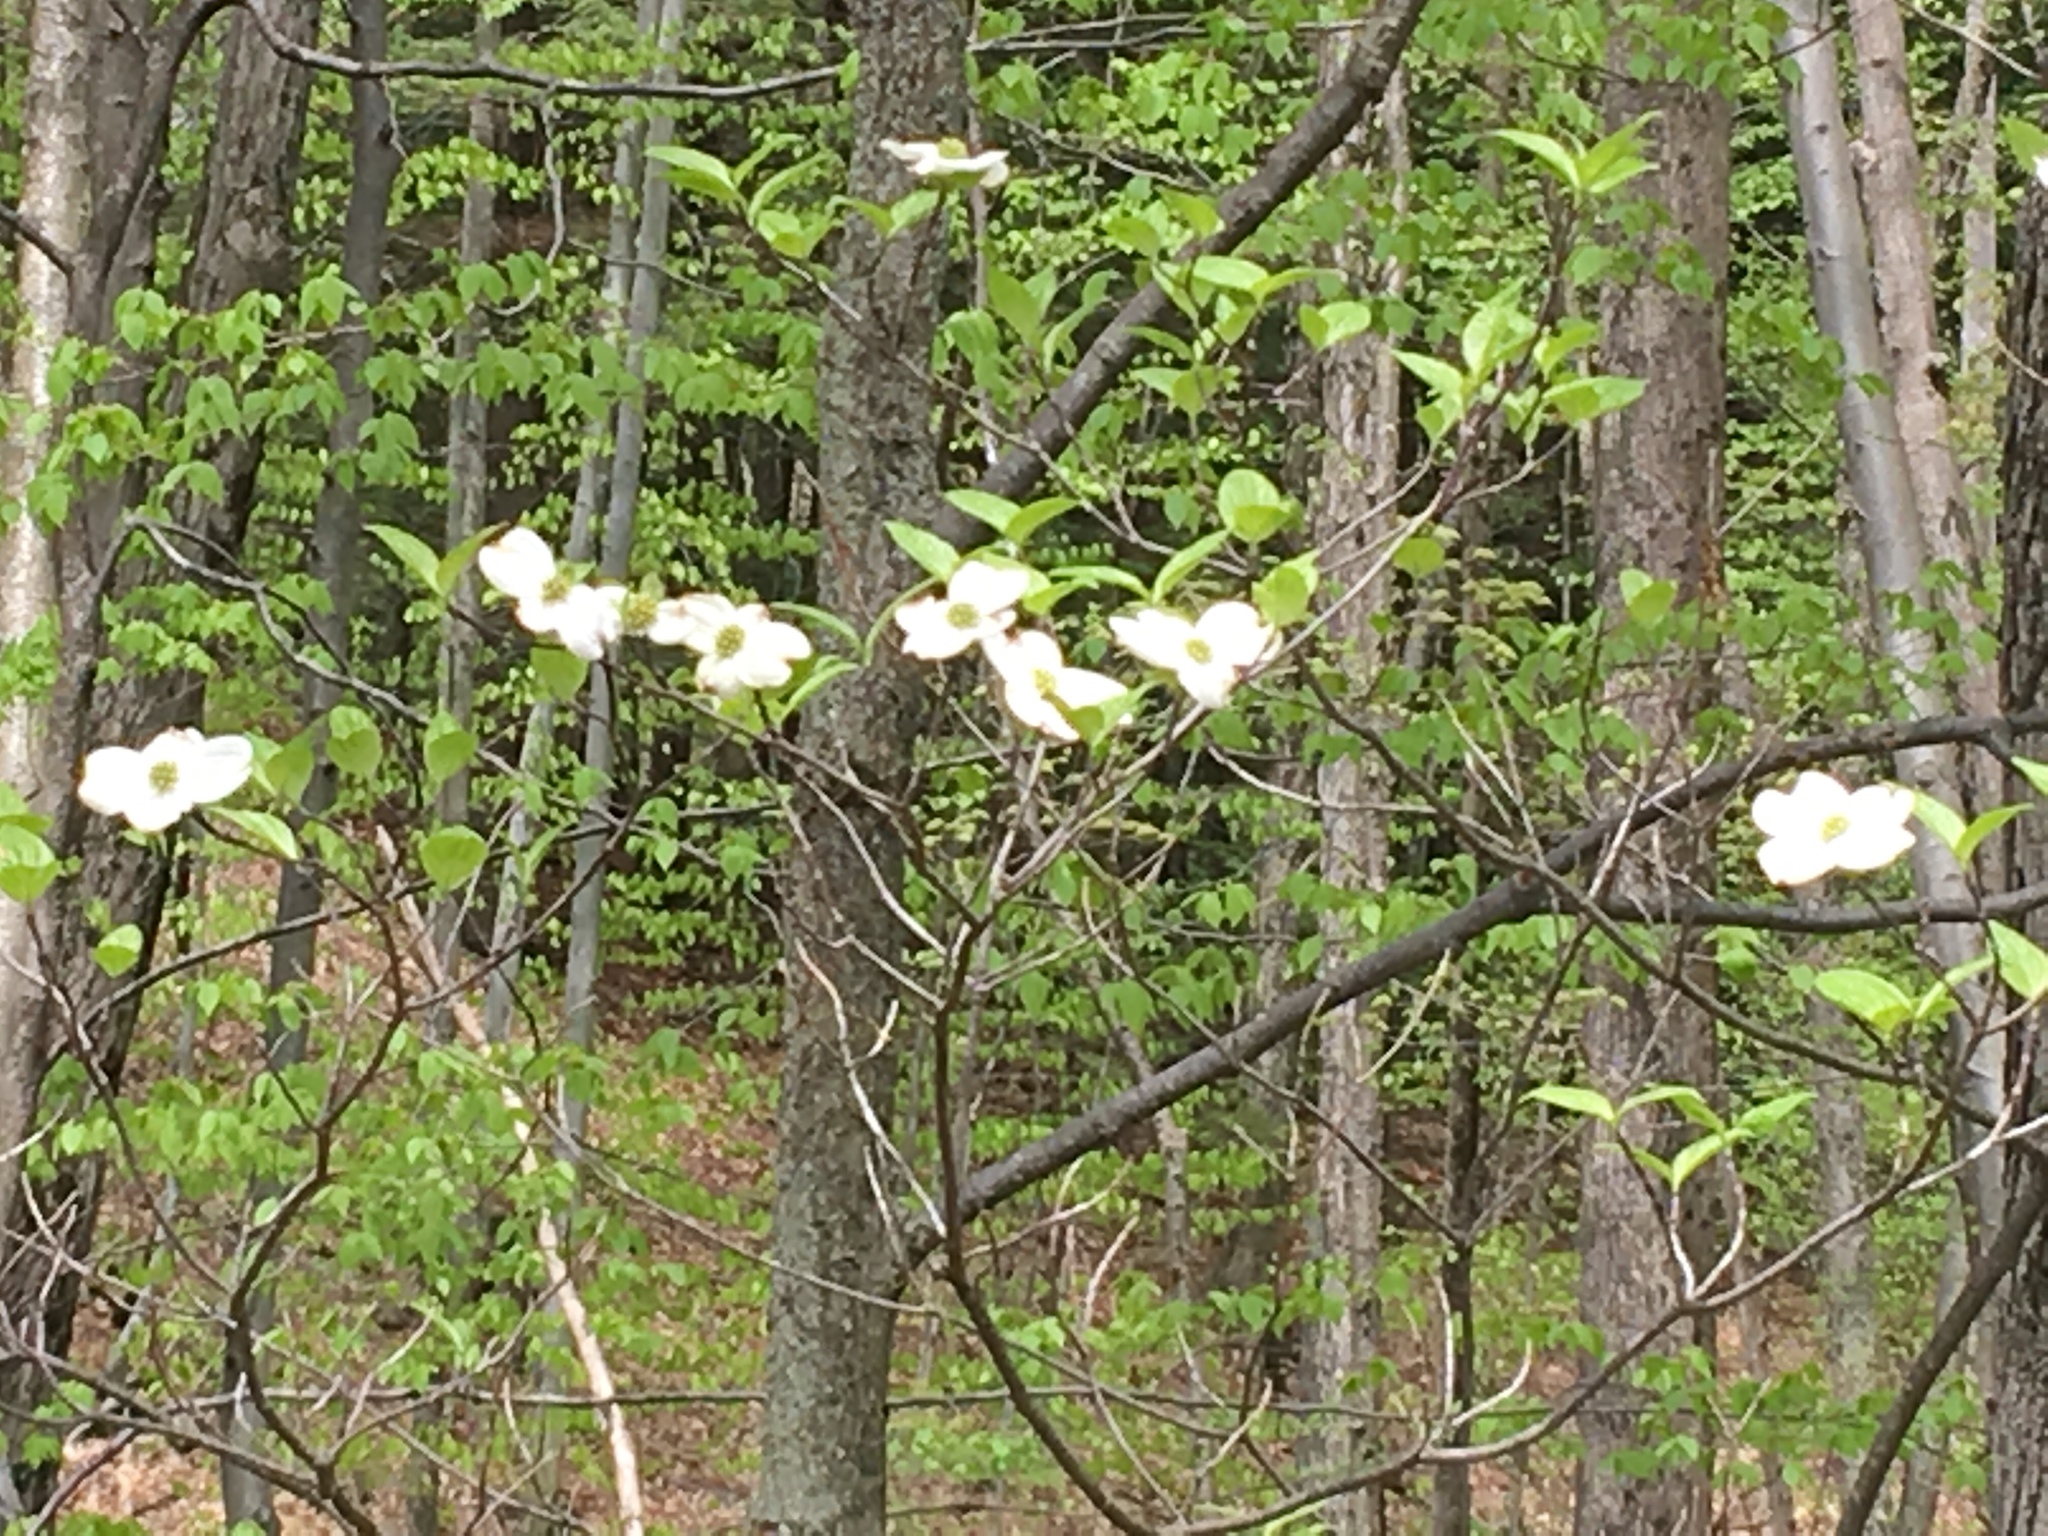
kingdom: Plantae
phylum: Tracheophyta
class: Magnoliopsida
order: Cornales
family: Cornaceae
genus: Cornus
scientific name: Cornus florida
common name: Flowering dogwood
